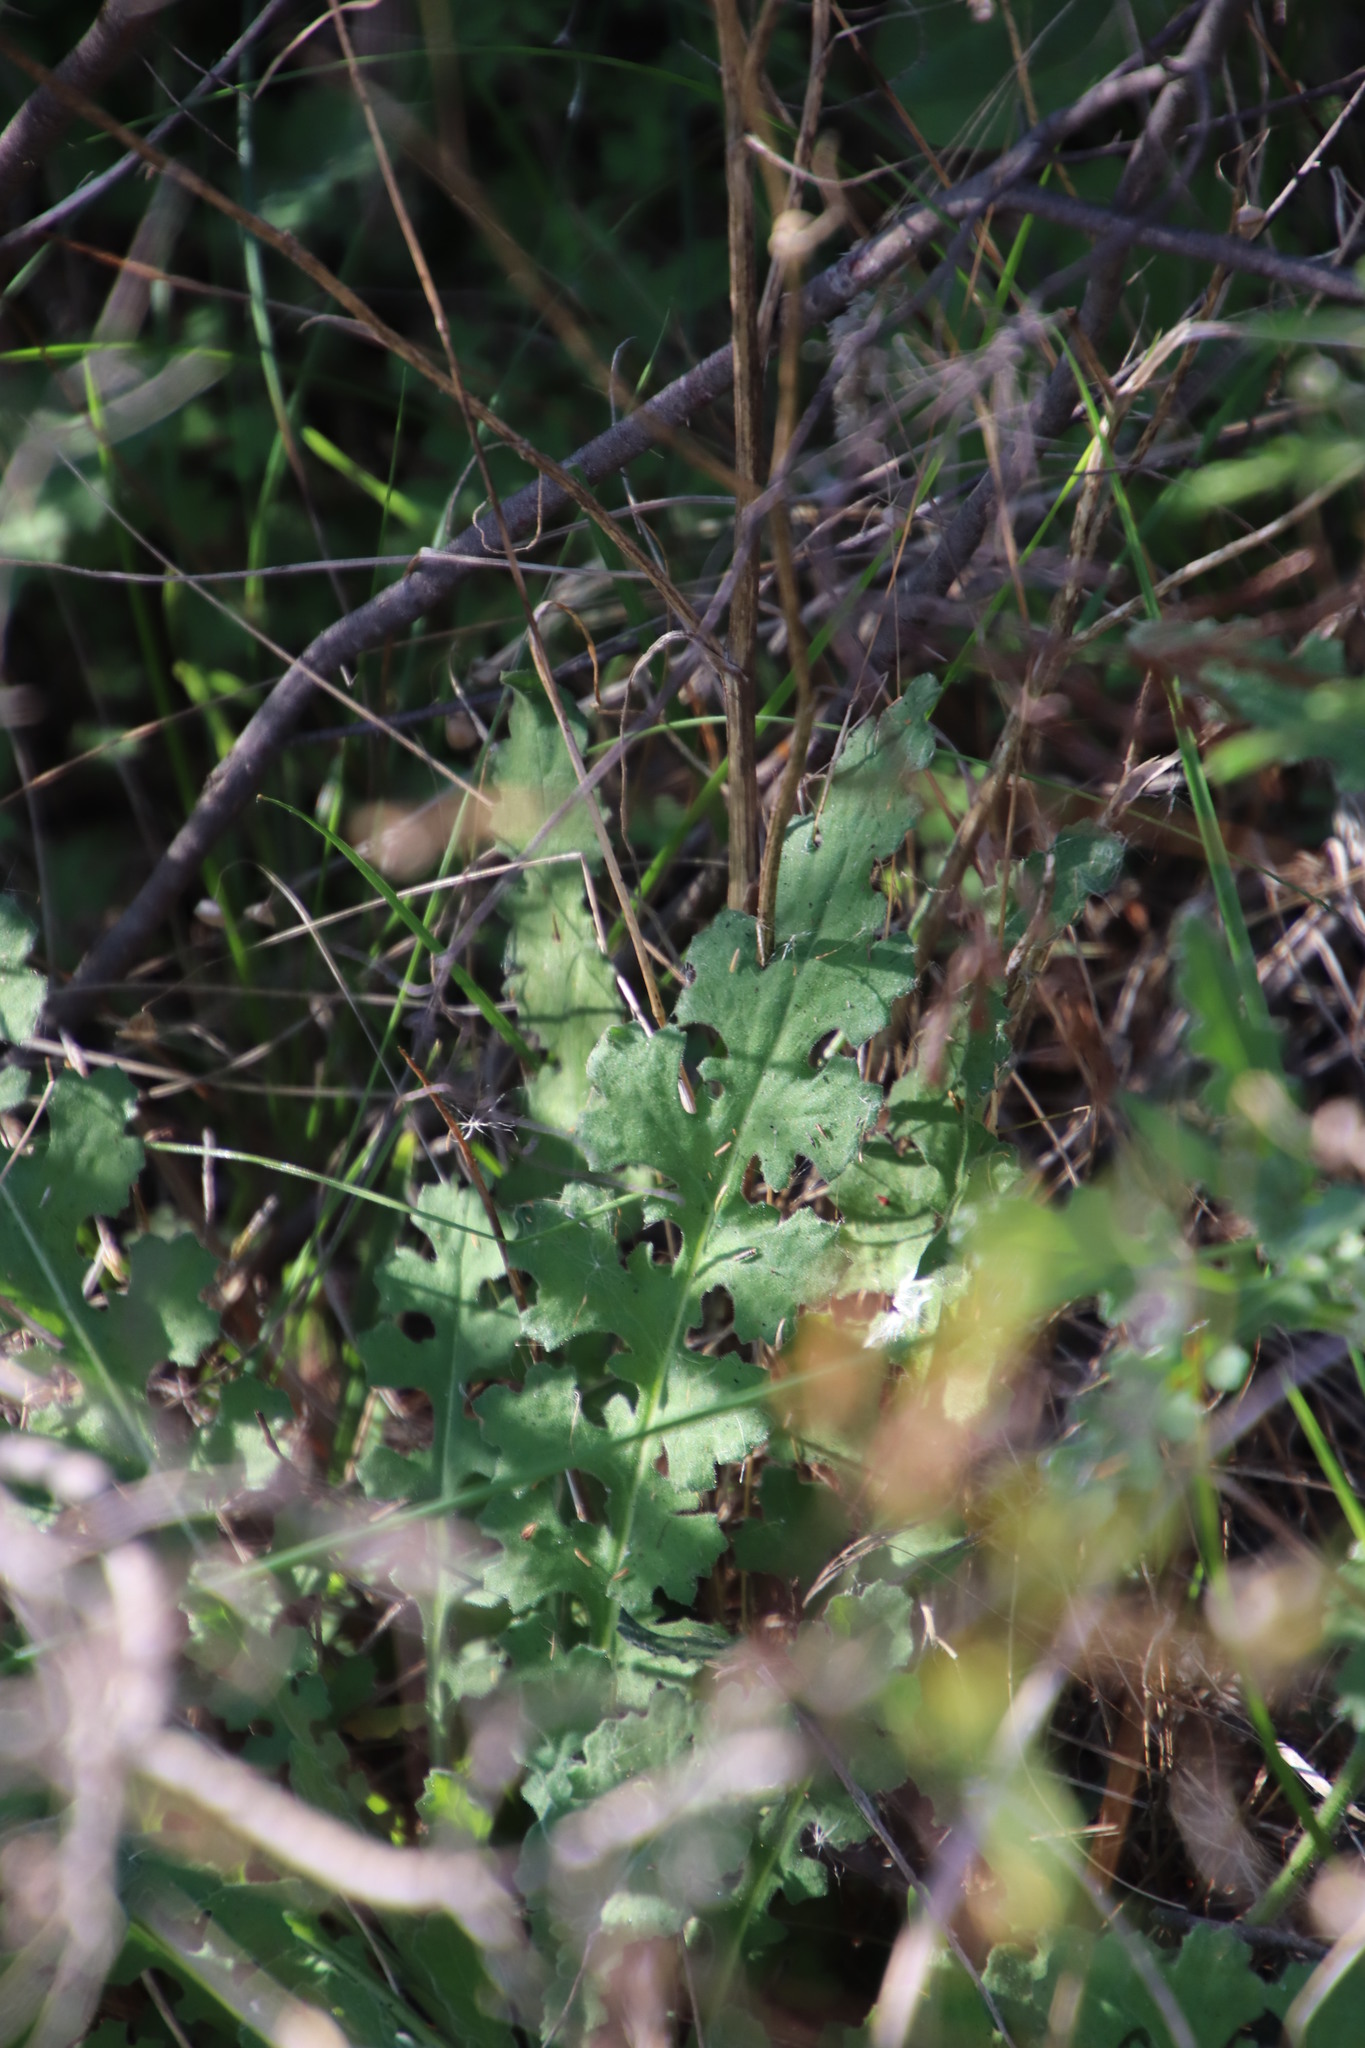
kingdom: Plantae
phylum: Tracheophyta
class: Magnoliopsida
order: Asterales
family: Asteraceae
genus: Senecio
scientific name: Senecio hastatus
